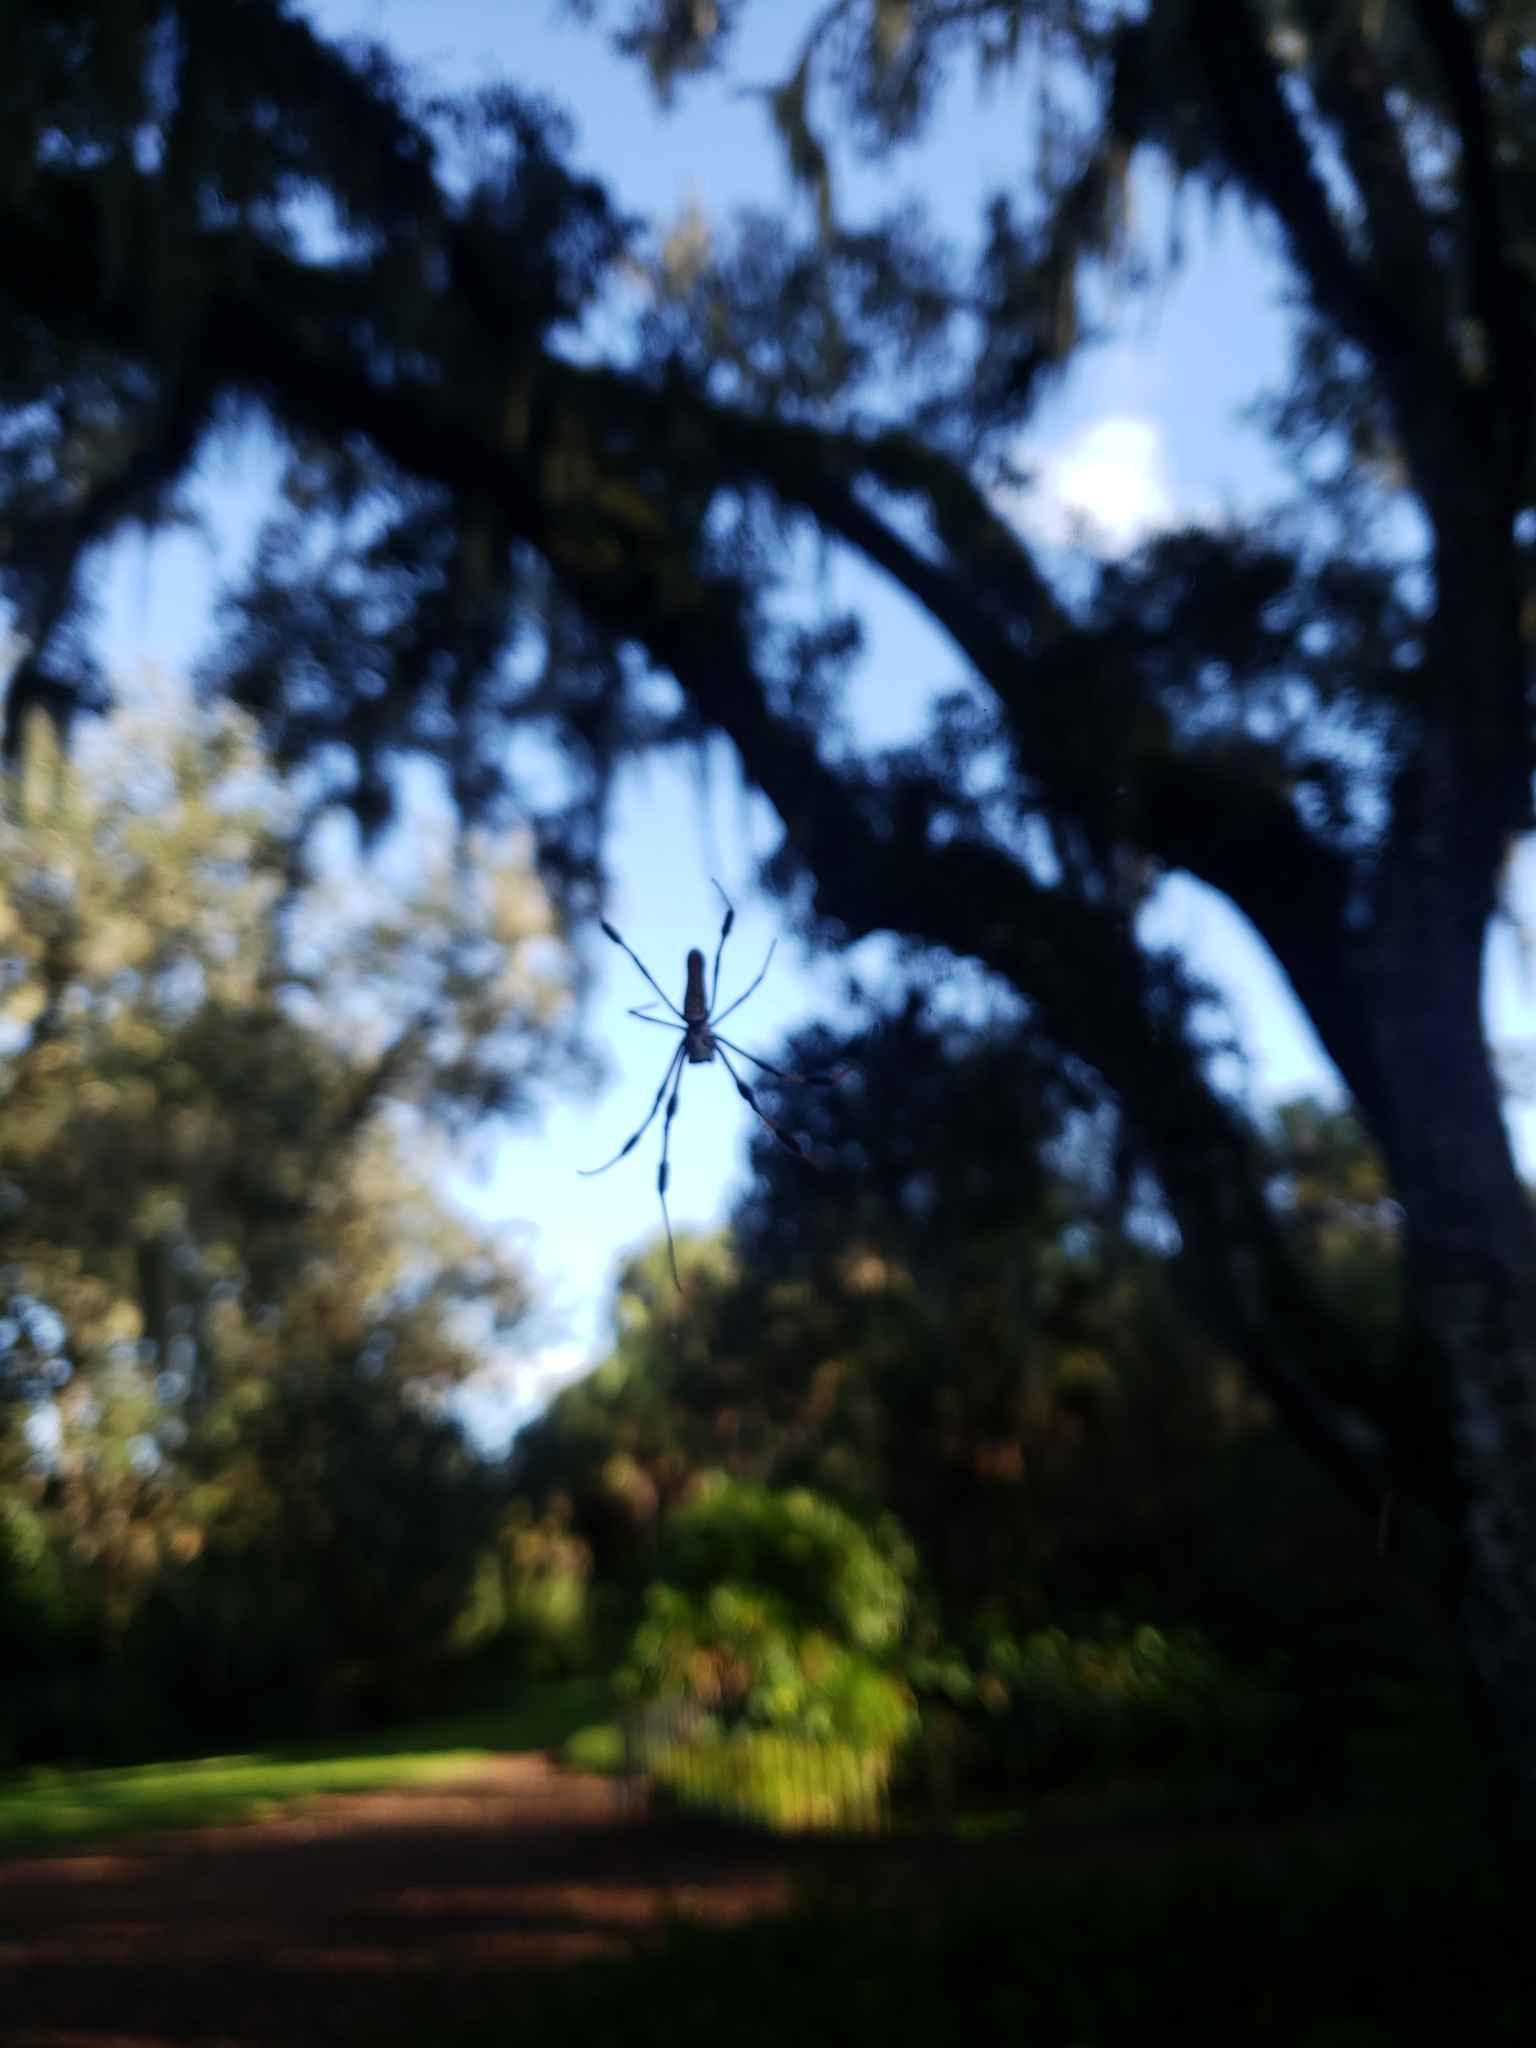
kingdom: Animalia
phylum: Arthropoda
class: Arachnida
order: Araneae
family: Araneidae
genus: Trichonephila
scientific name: Trichonephila clavipes
